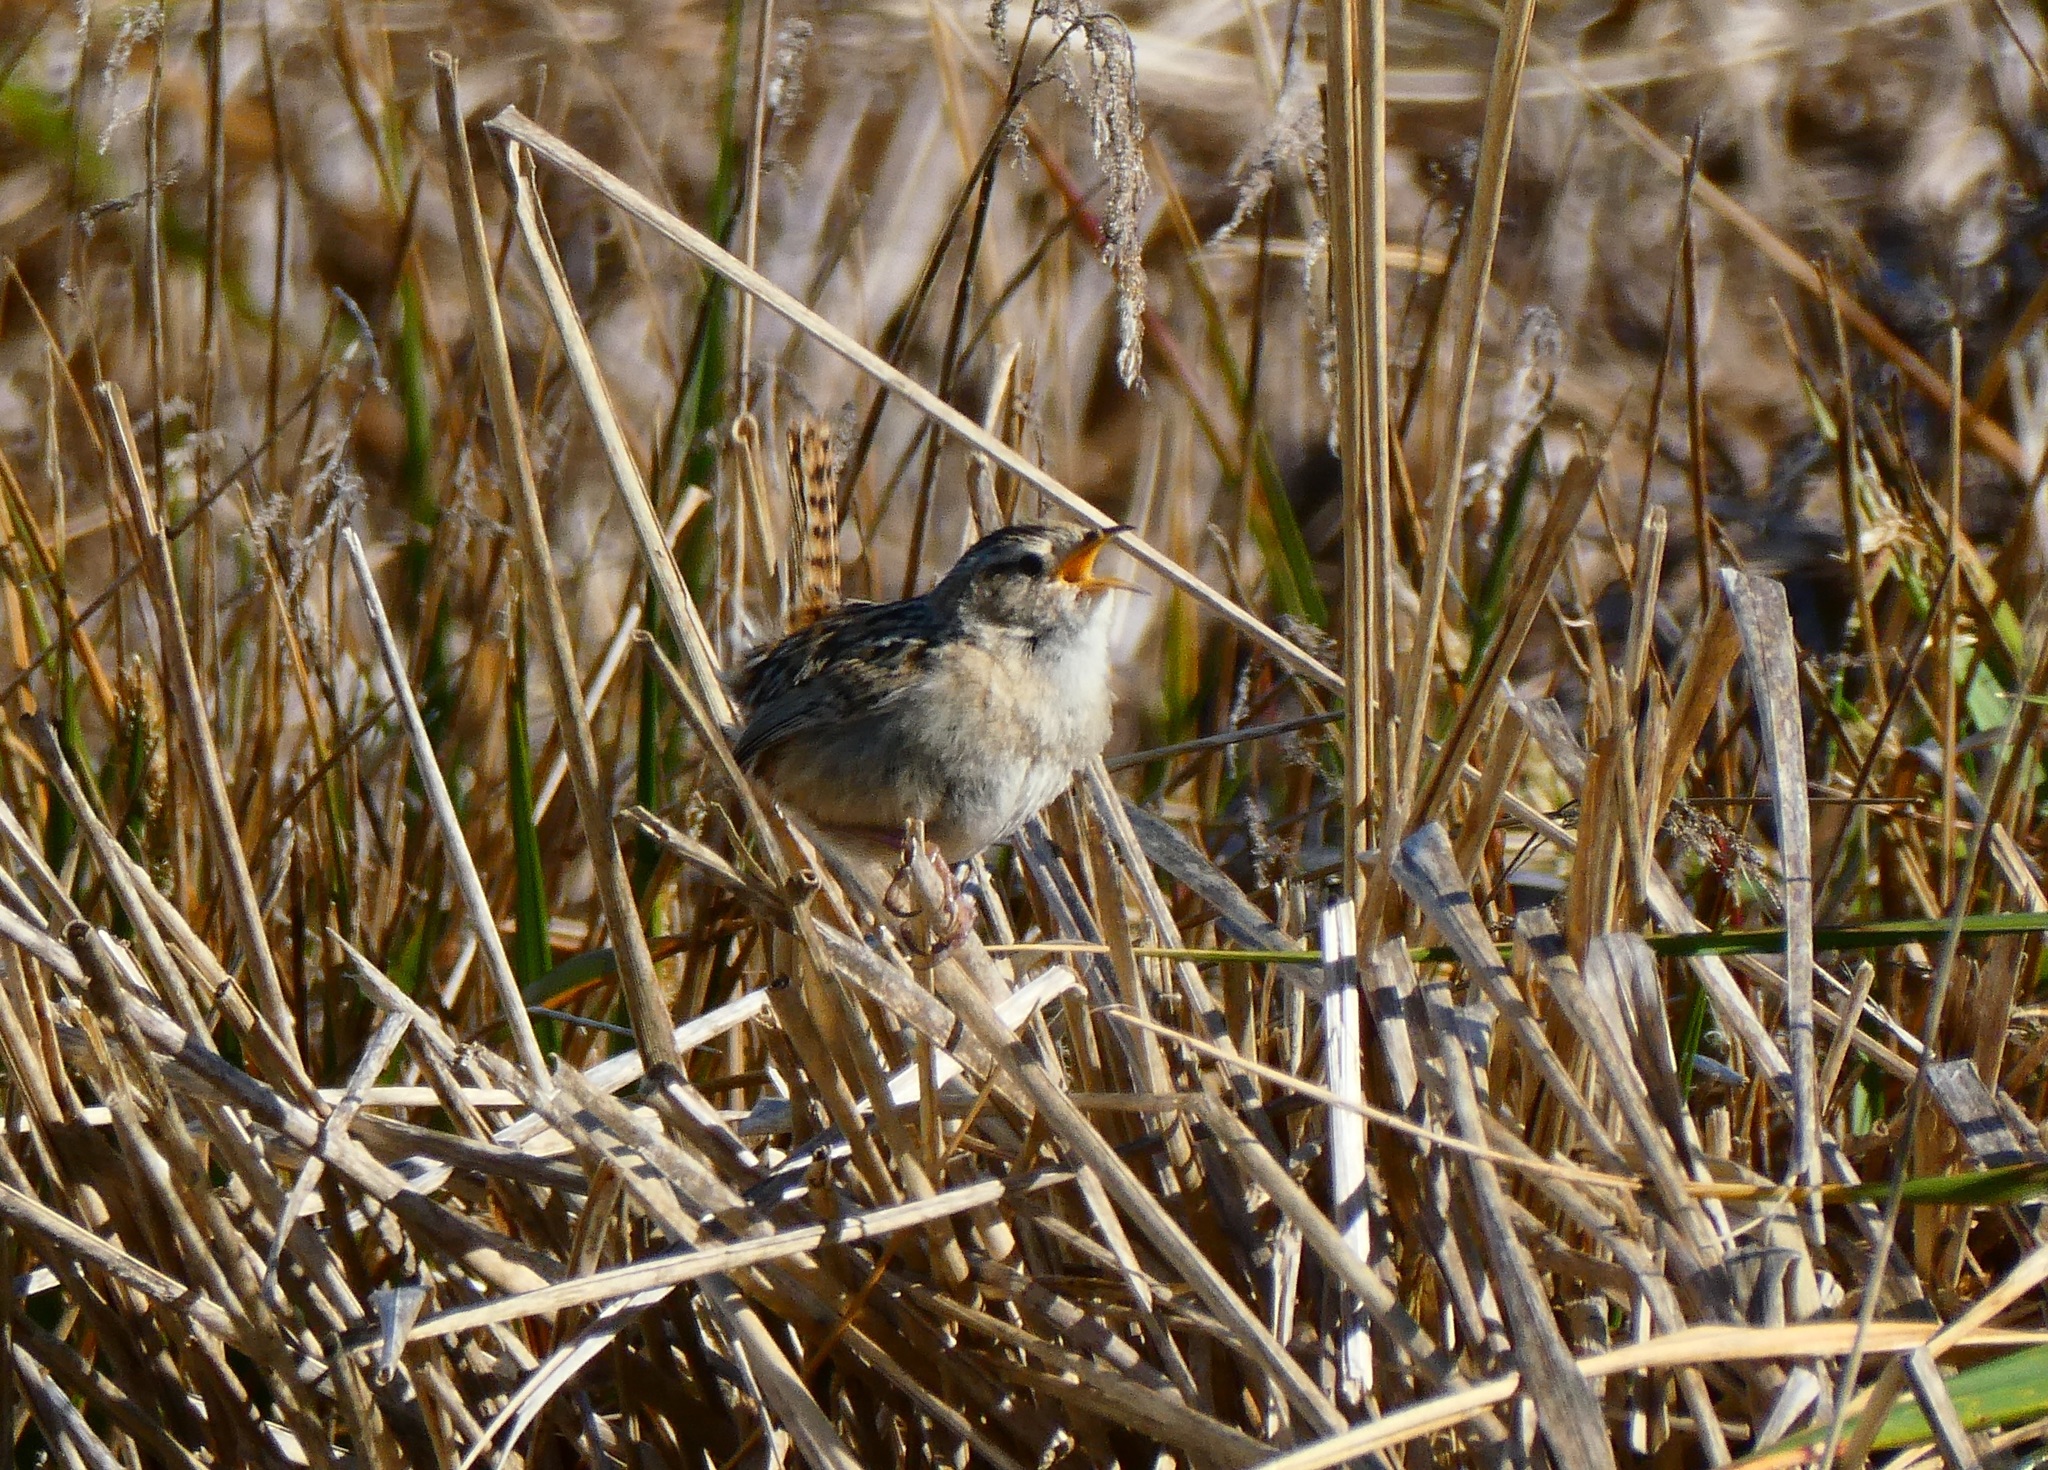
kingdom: Animalia
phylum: Chordata
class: Aves
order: Passeriformes
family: Troglodytidae
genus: Cistothorus
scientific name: Cistothorus platensis
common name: Sedge wren
